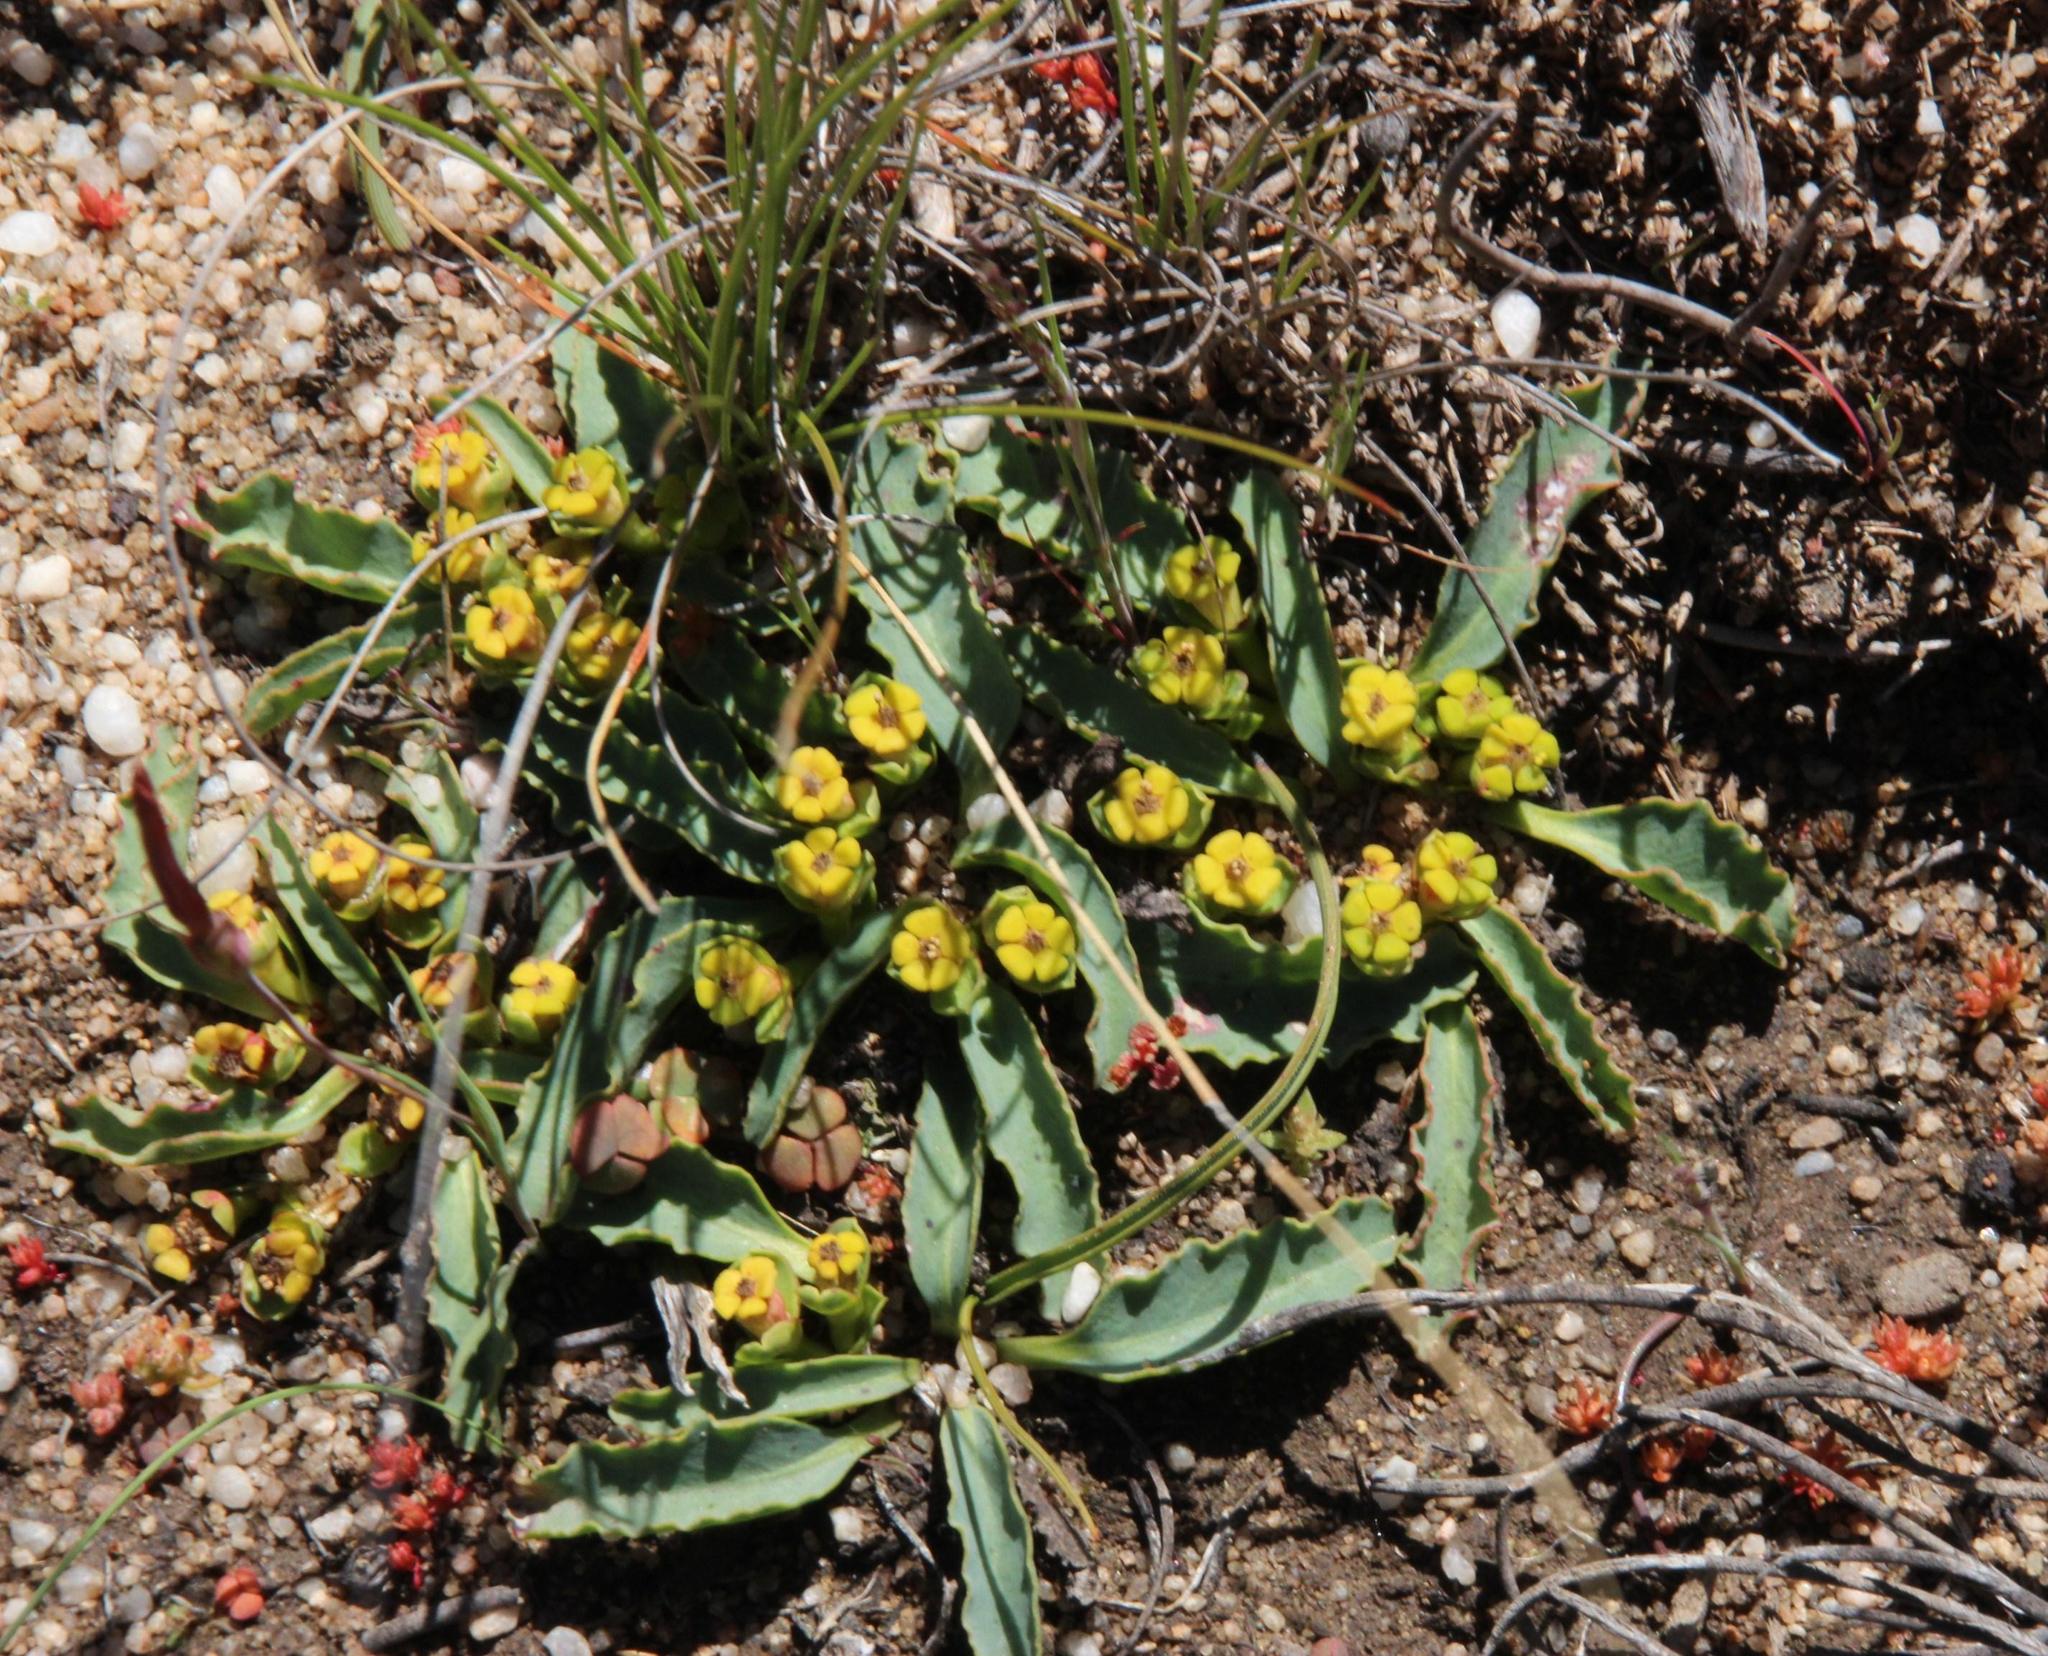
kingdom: Plantae
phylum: Tracheophyta
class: Magnoliopsida
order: Malpighiales
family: Euphorbiaceae
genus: Euphorbia
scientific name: Euphorbia tuberosa
